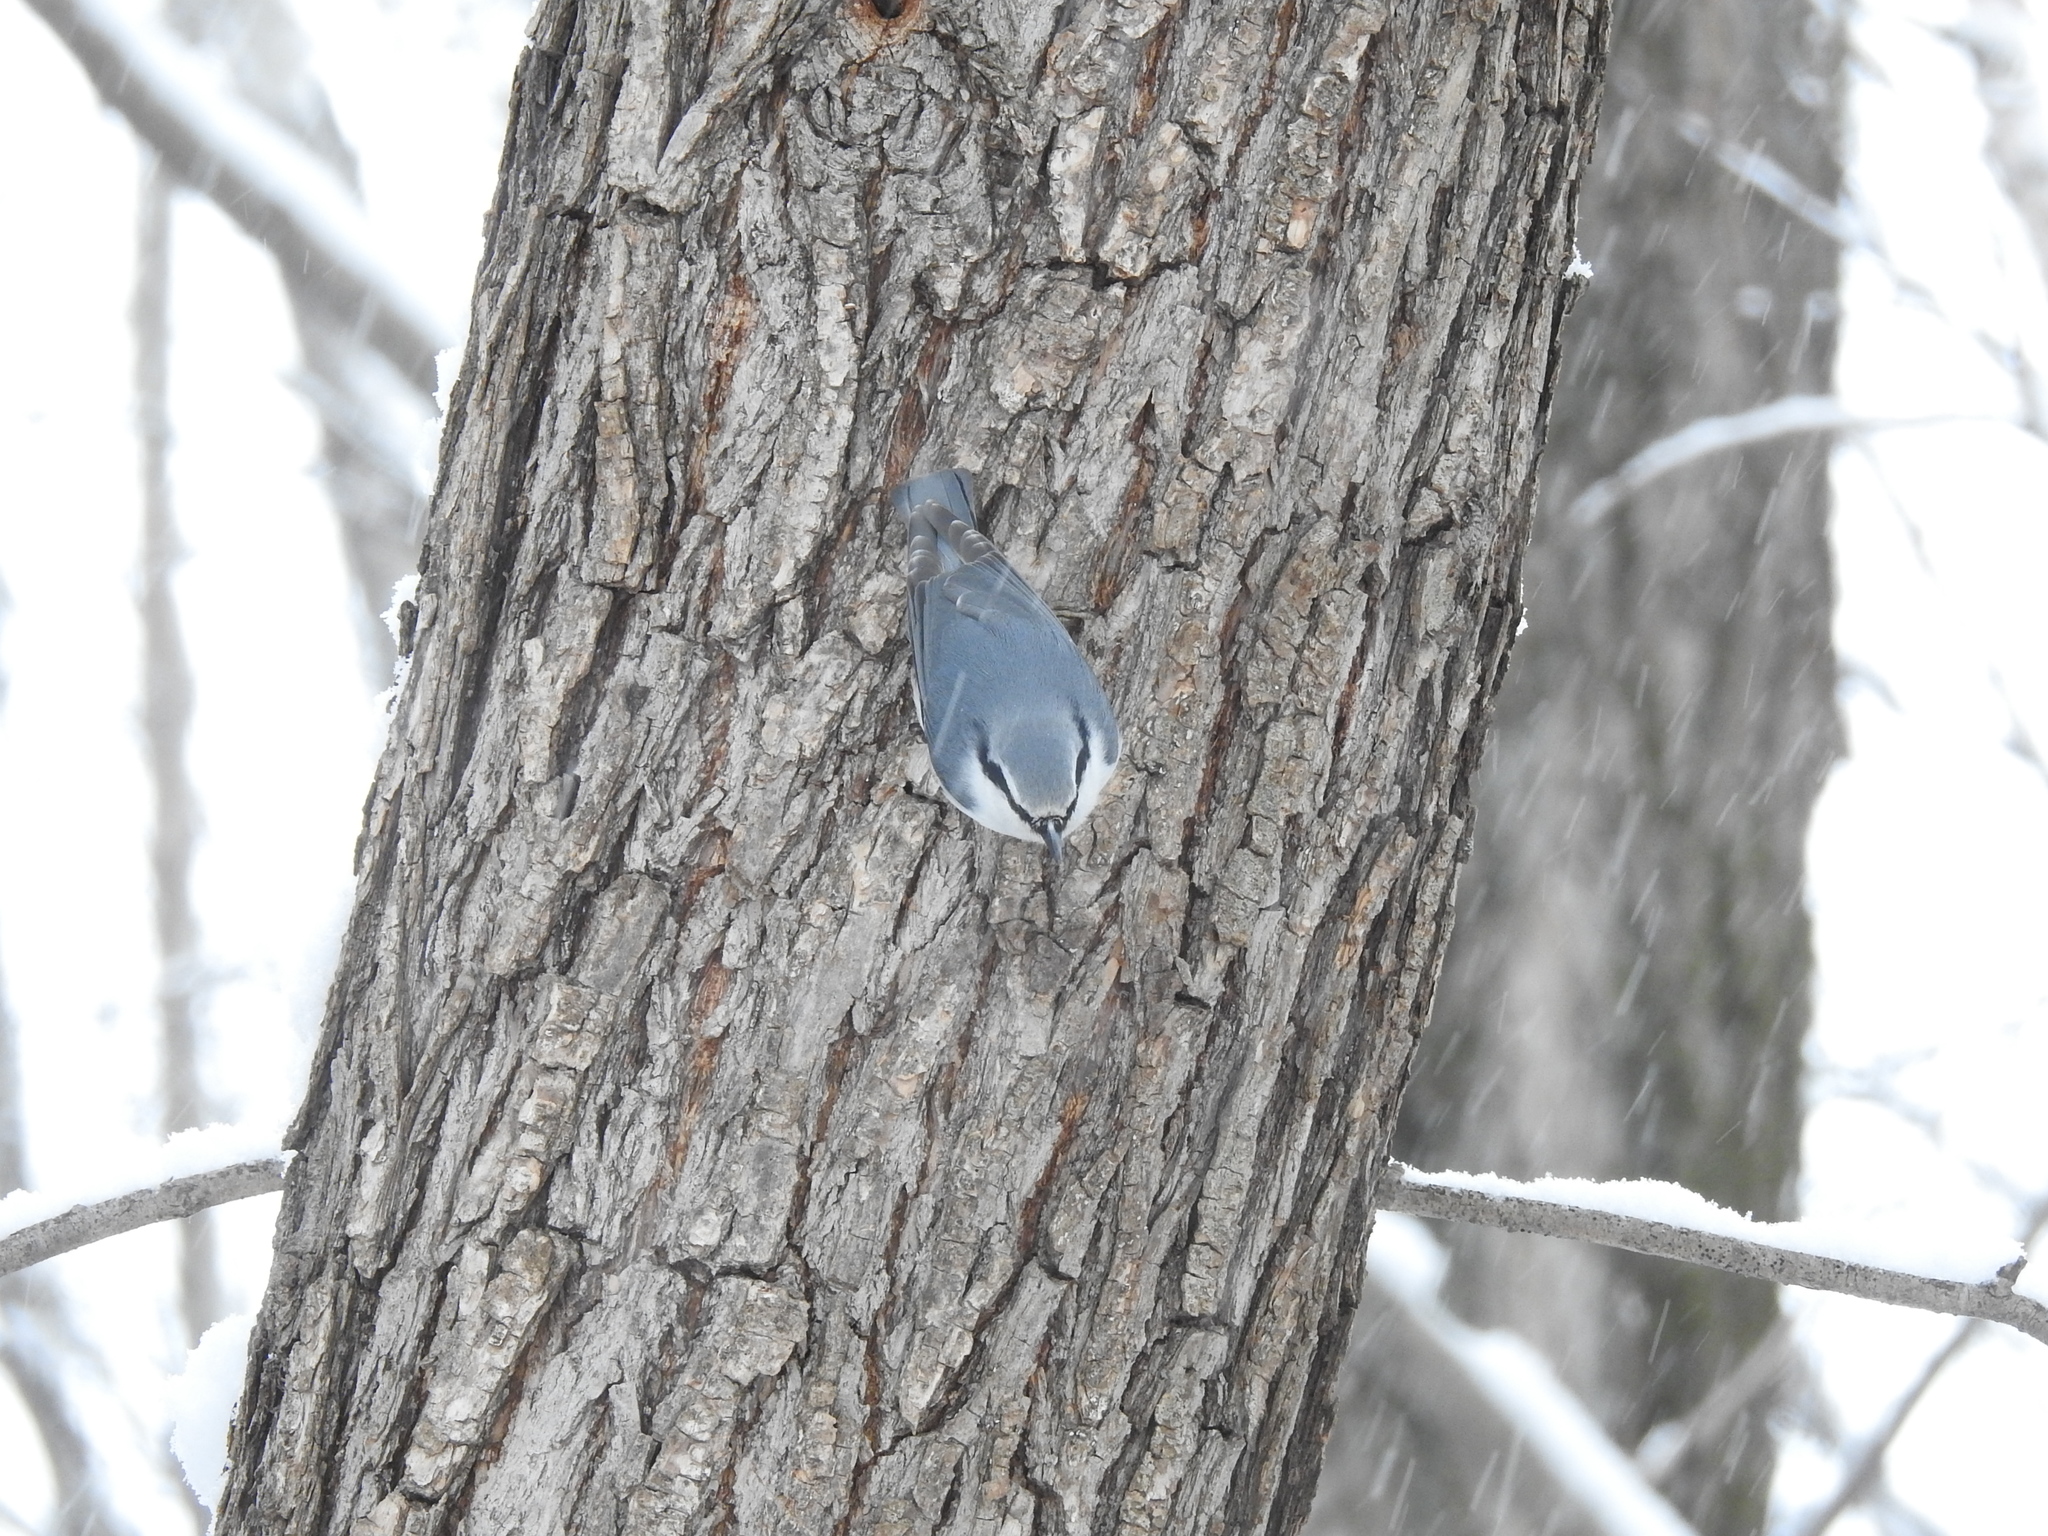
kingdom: Animalia
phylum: Chordata
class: Aves
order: Passeriformes
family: Sittidae
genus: Sitta
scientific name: Sitta europaea
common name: Eurasian nuthatch
